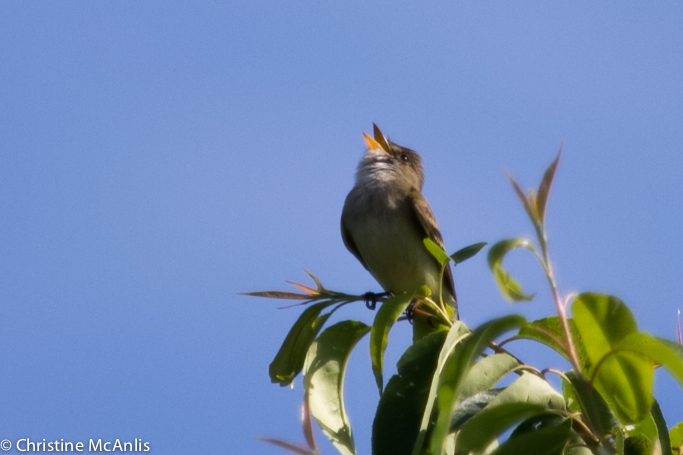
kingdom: Animalia
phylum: Chordata
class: Aves
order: Passeriformes
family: Tyrannidae
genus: Empidonax
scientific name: Empidonax traillii
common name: Willow flycatcher
